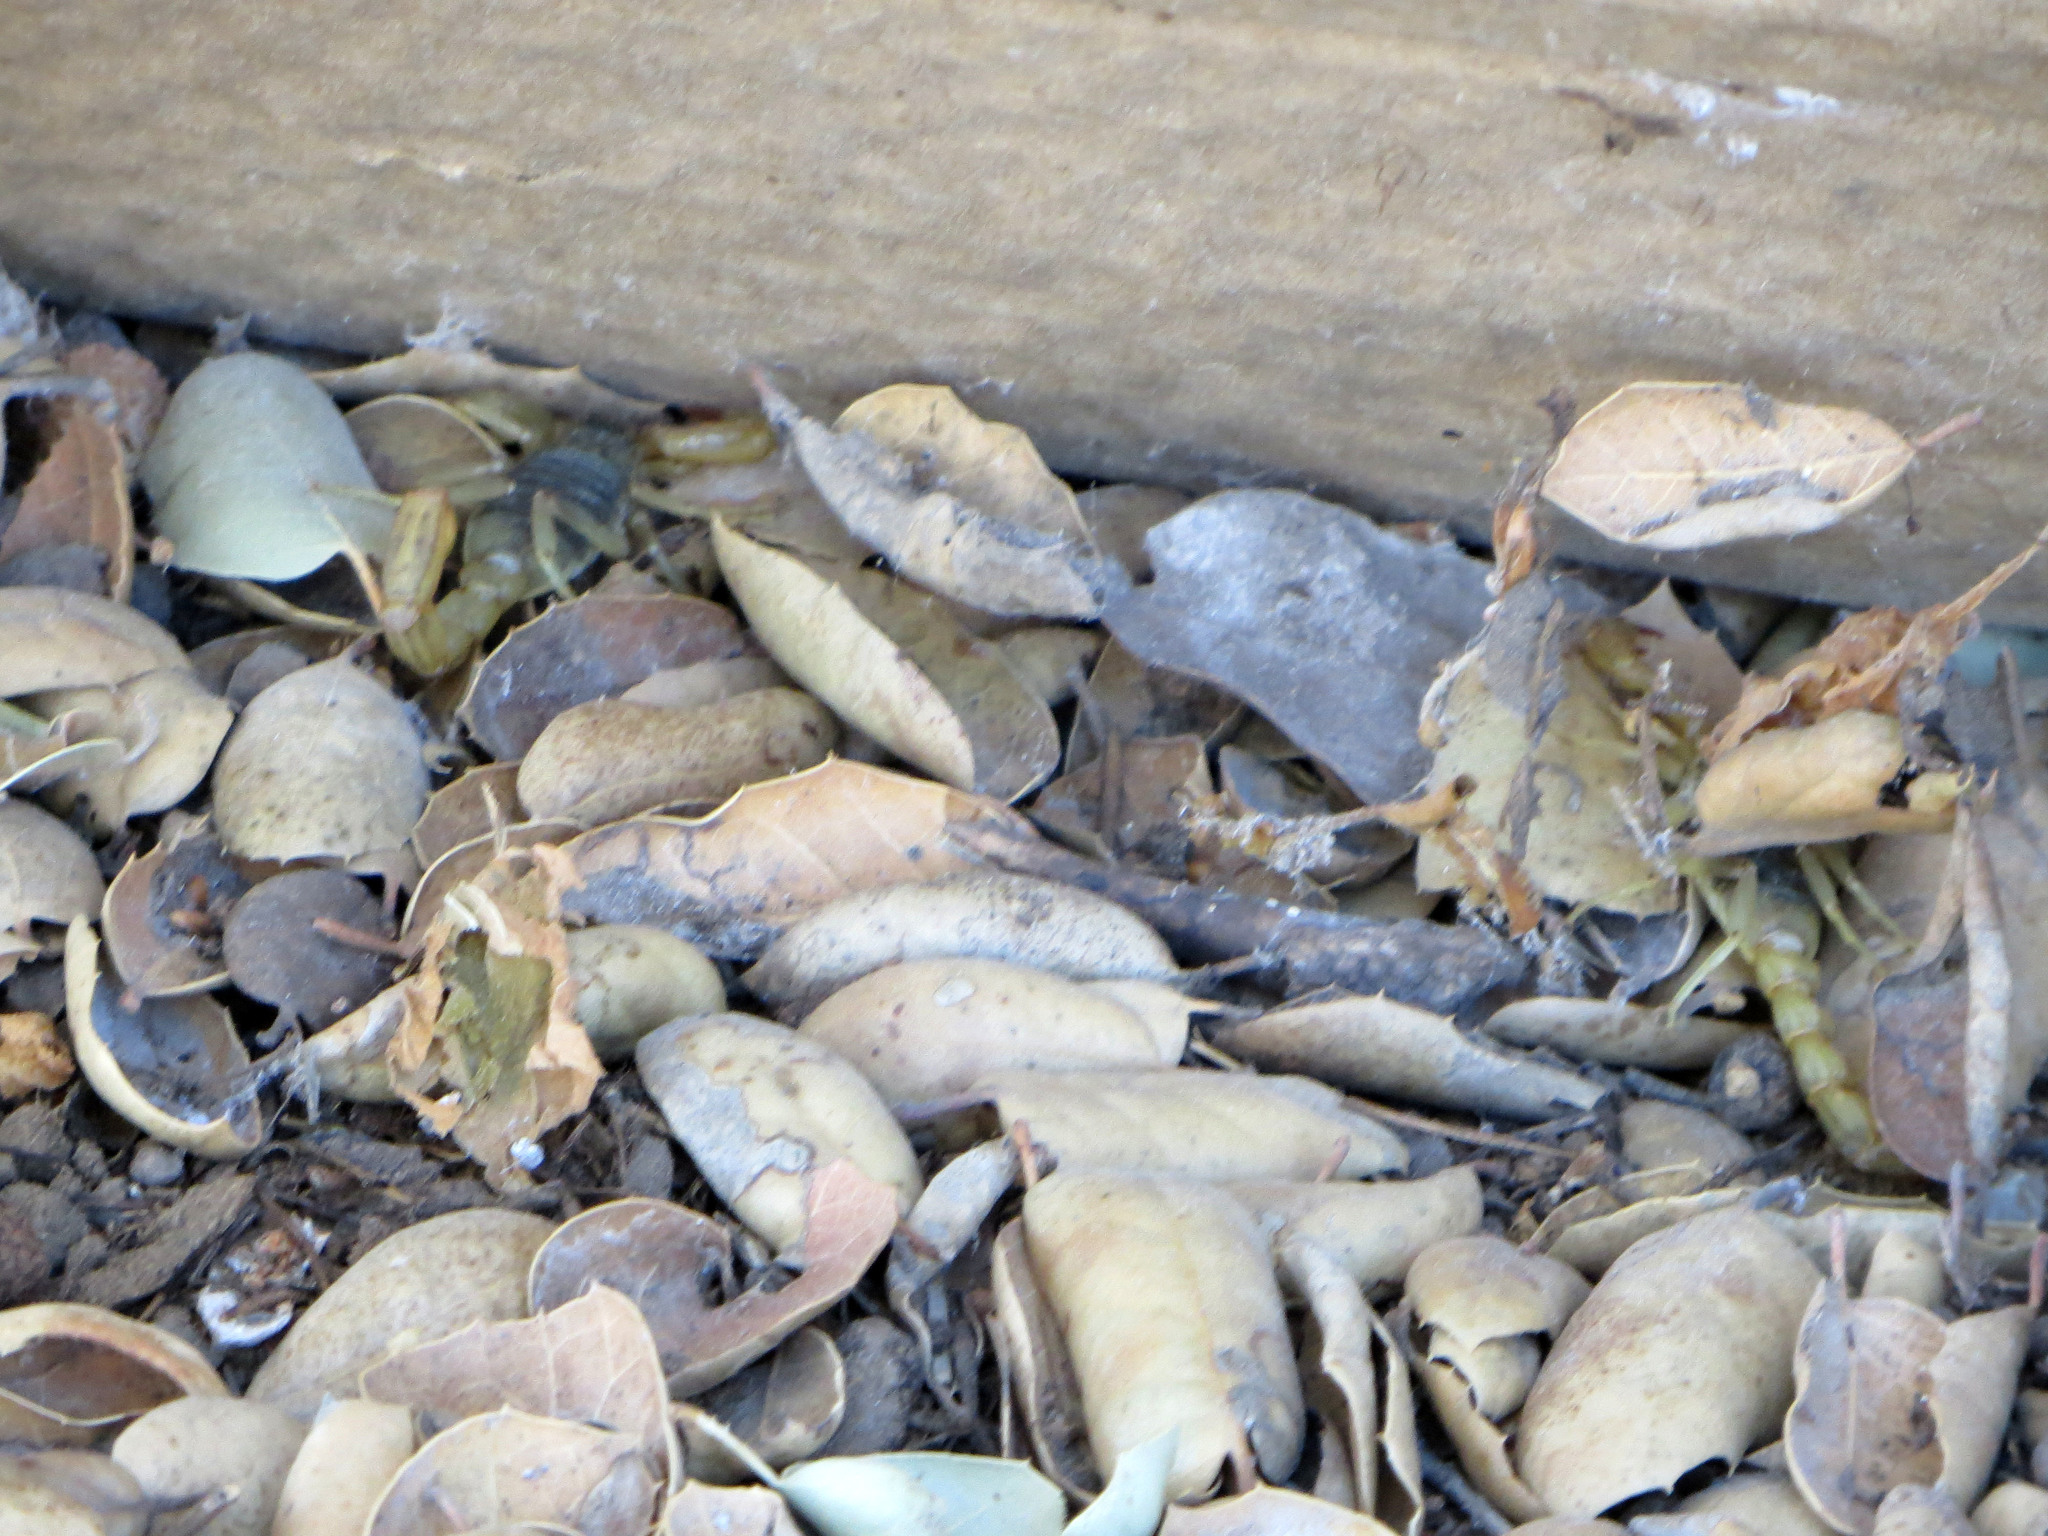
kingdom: Animalia
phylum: Arthropoda
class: Arachnida
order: Scorpiones
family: Vaejovidae
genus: Paruroctonus
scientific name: Paruroctonus silvestrii
